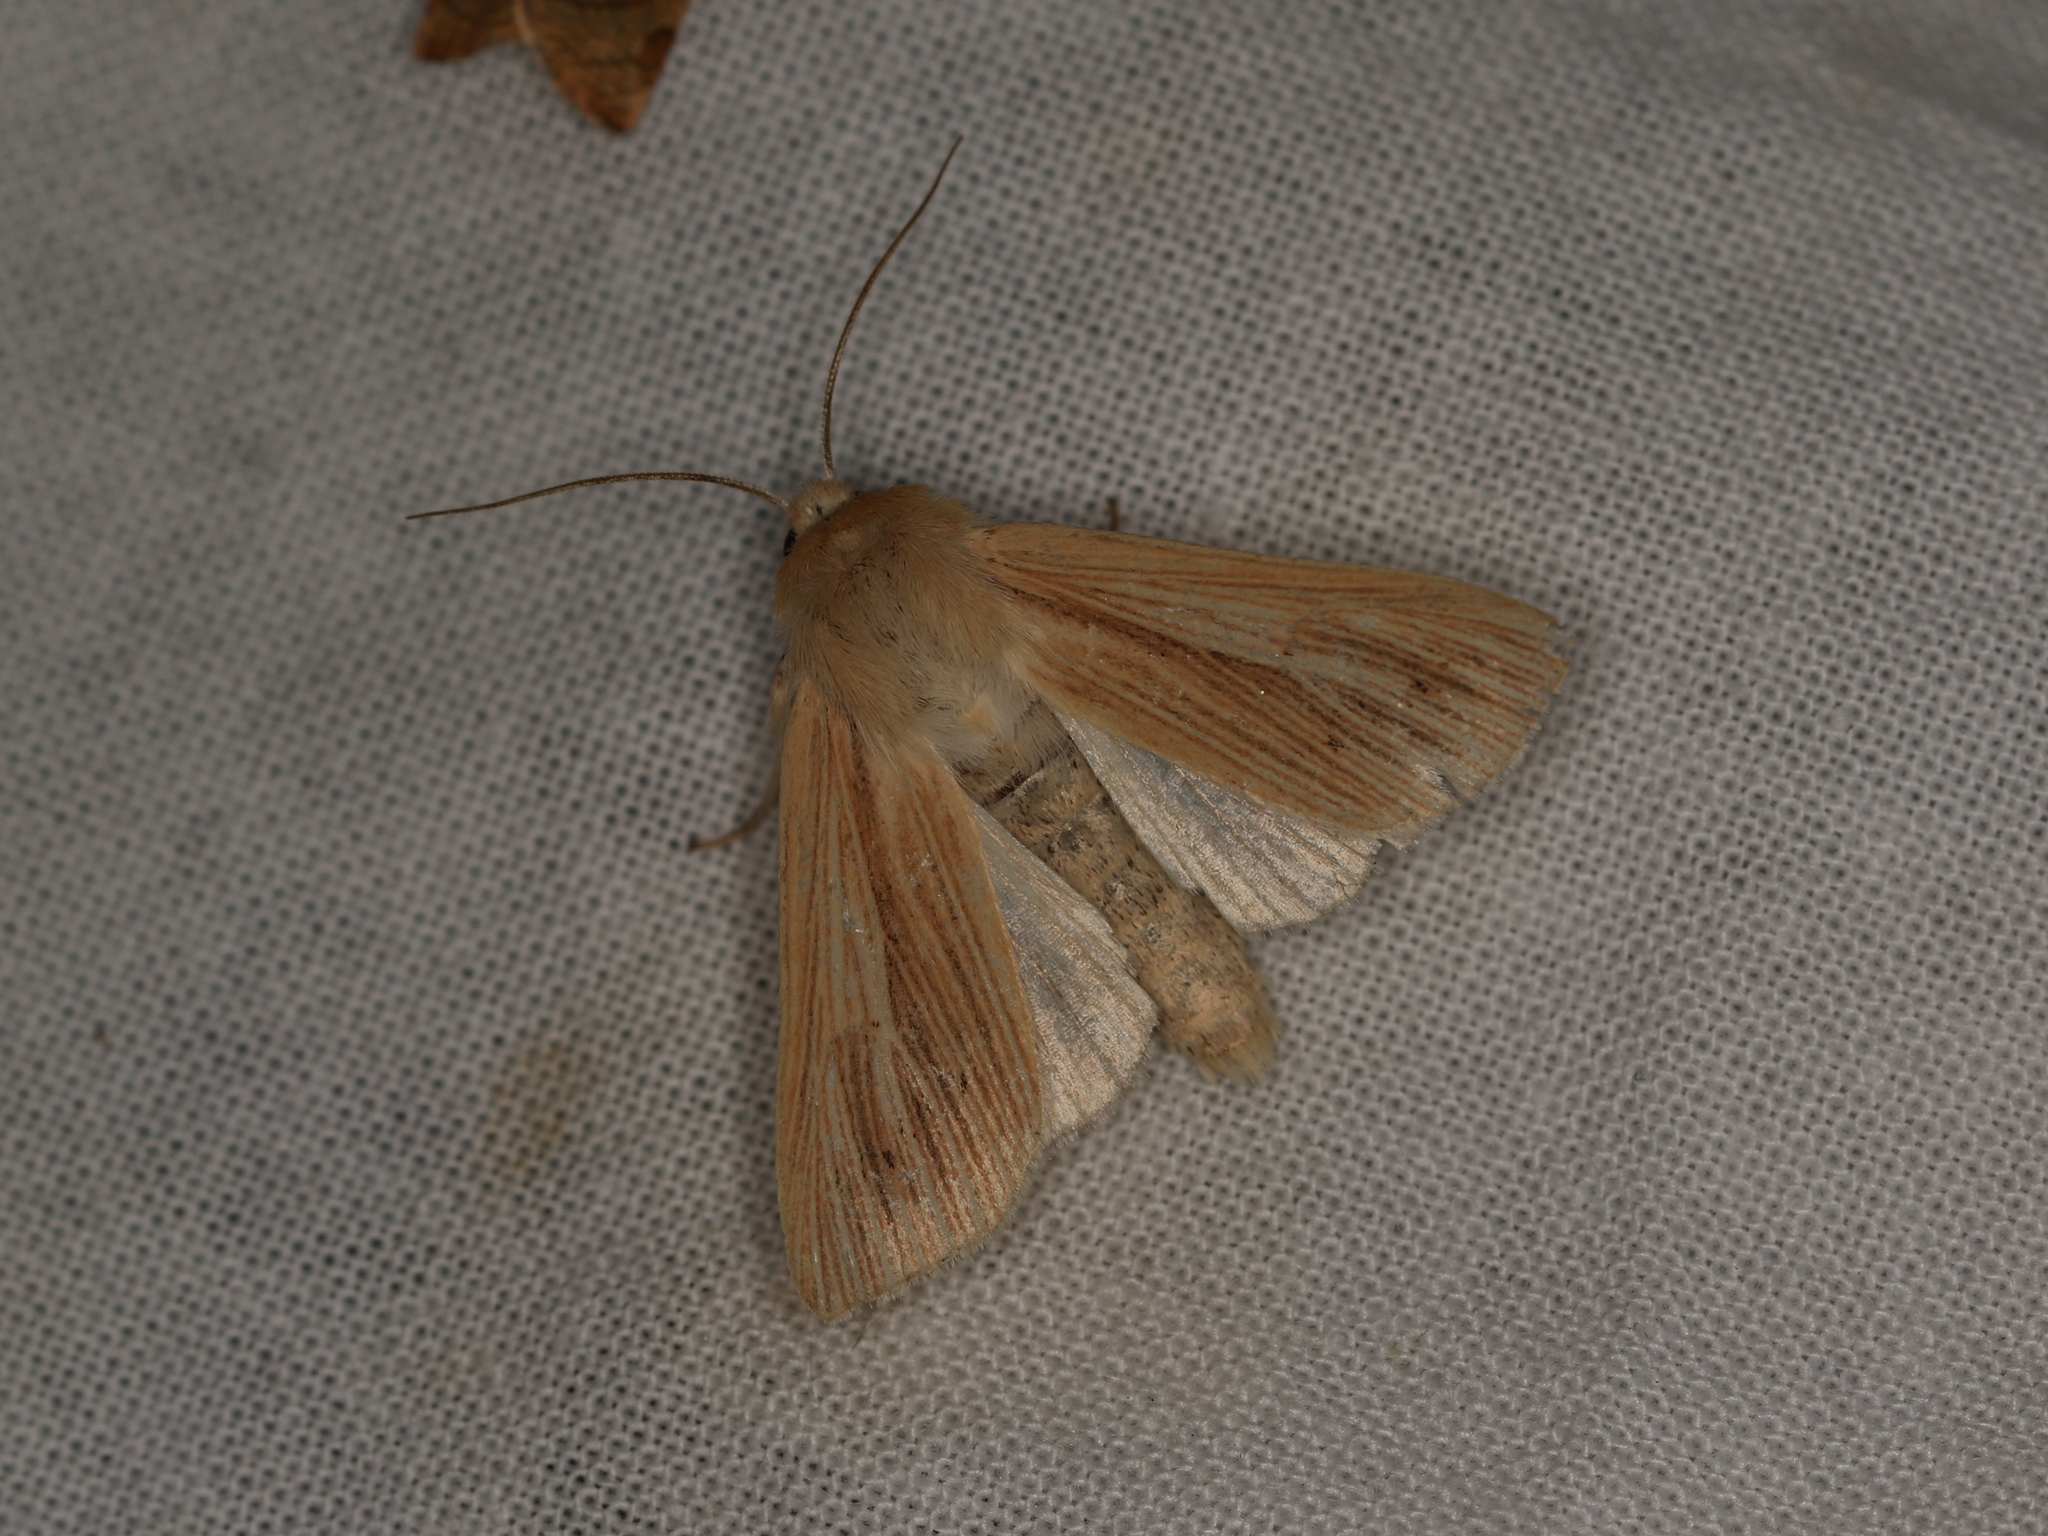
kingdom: Animalia
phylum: Arthropoda
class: Insecta
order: Lepidoptera
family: Noctuidae
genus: Mythimna
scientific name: Mythimna pallens
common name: Common wainscot
